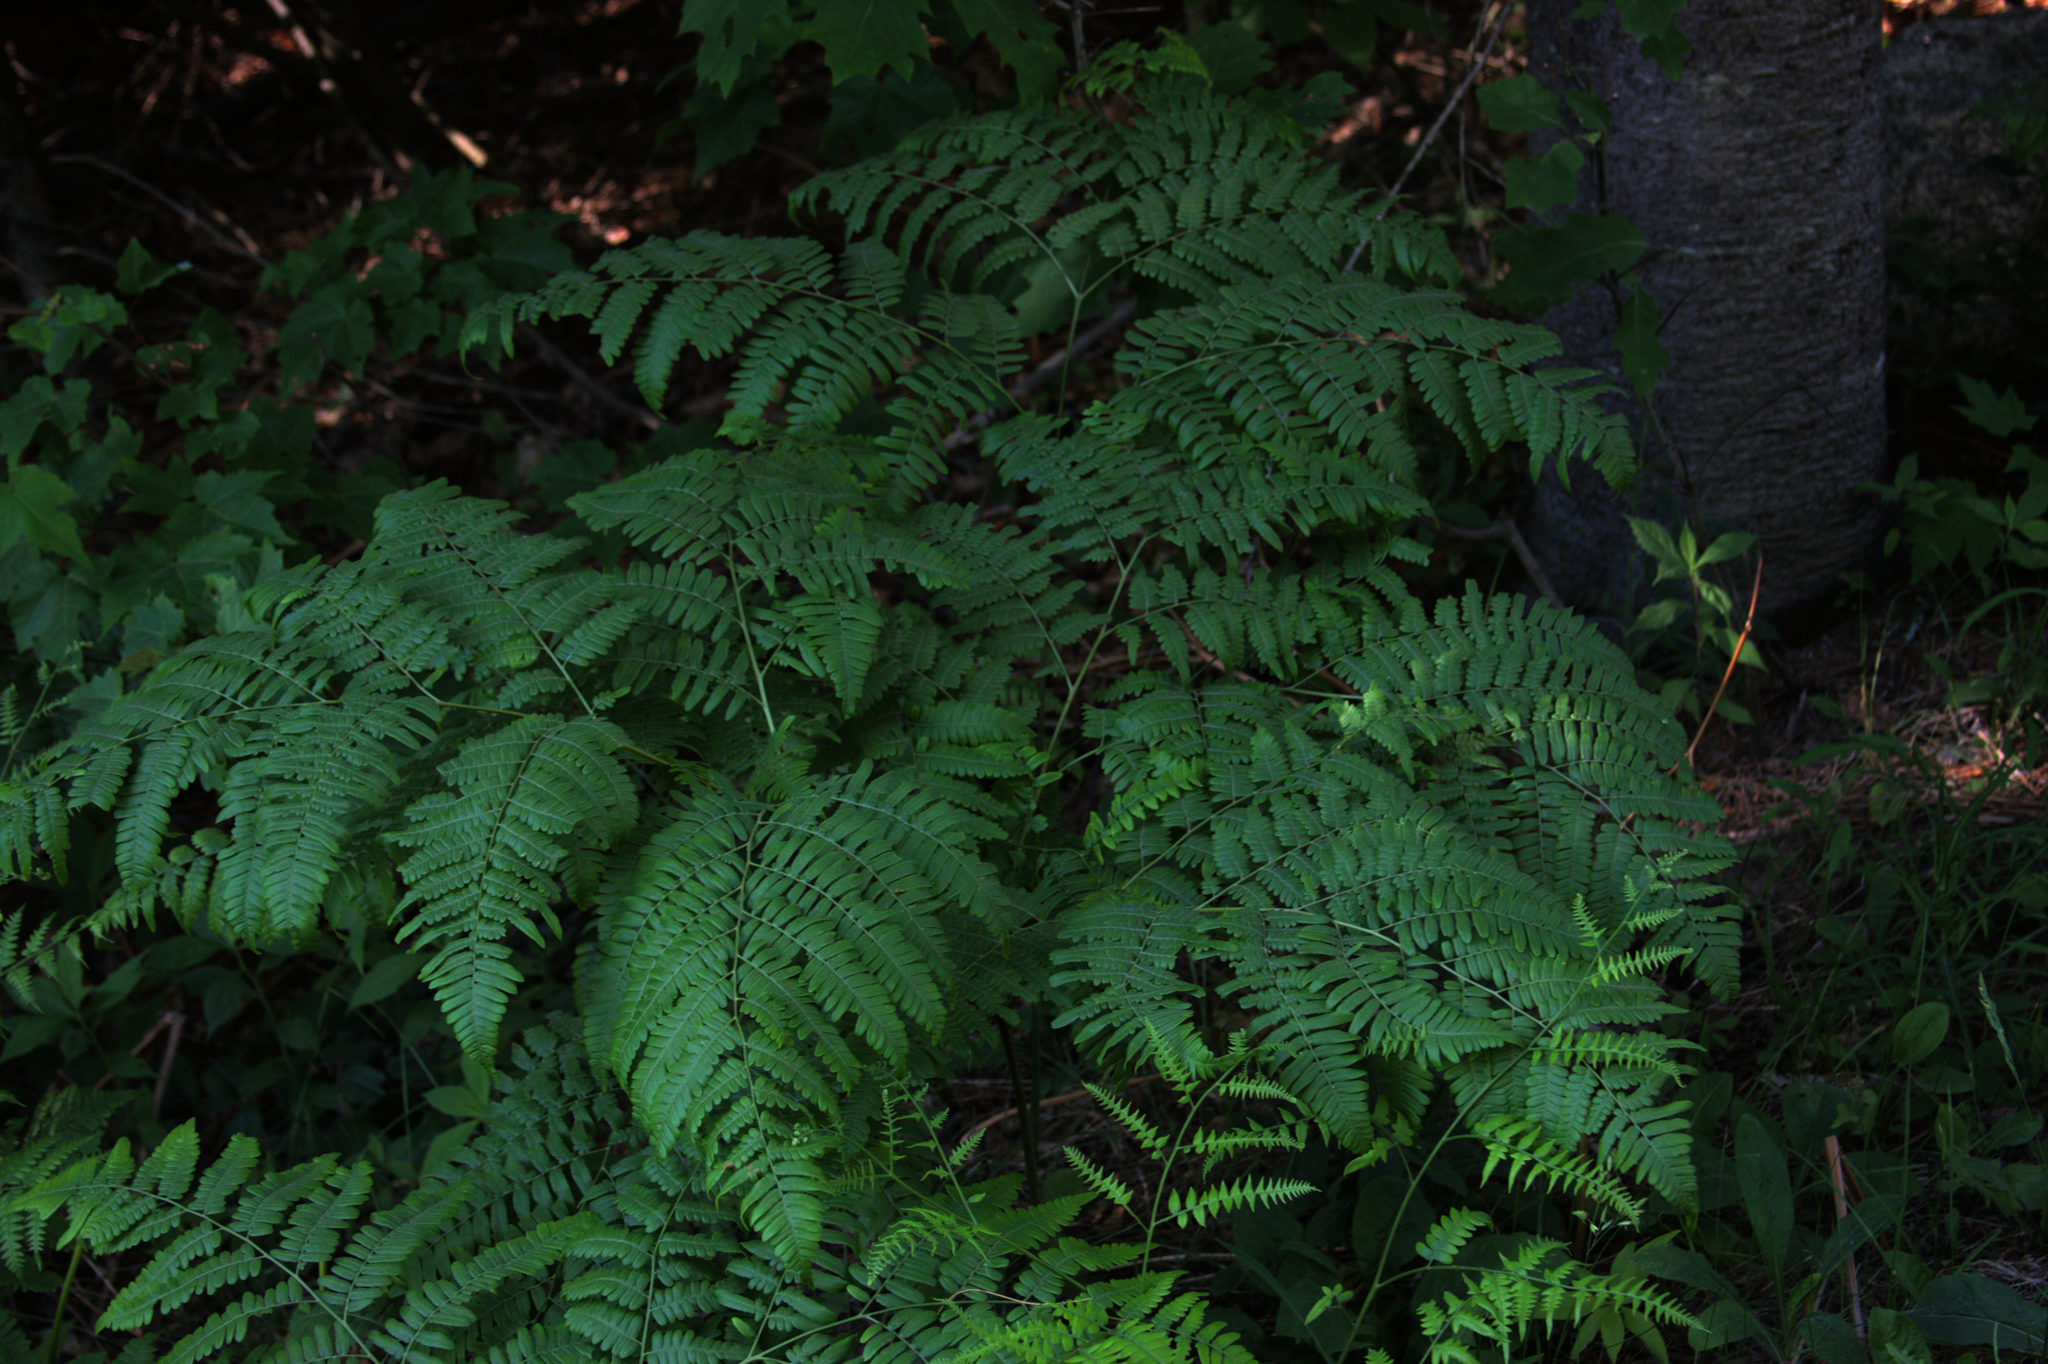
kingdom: Plantae
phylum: Tracheophyta
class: Polypodiopsida
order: Polypodiales
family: Dennstaedtiaceae
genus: Pteridium
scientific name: Pteridium aquilinum
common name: Bracken
